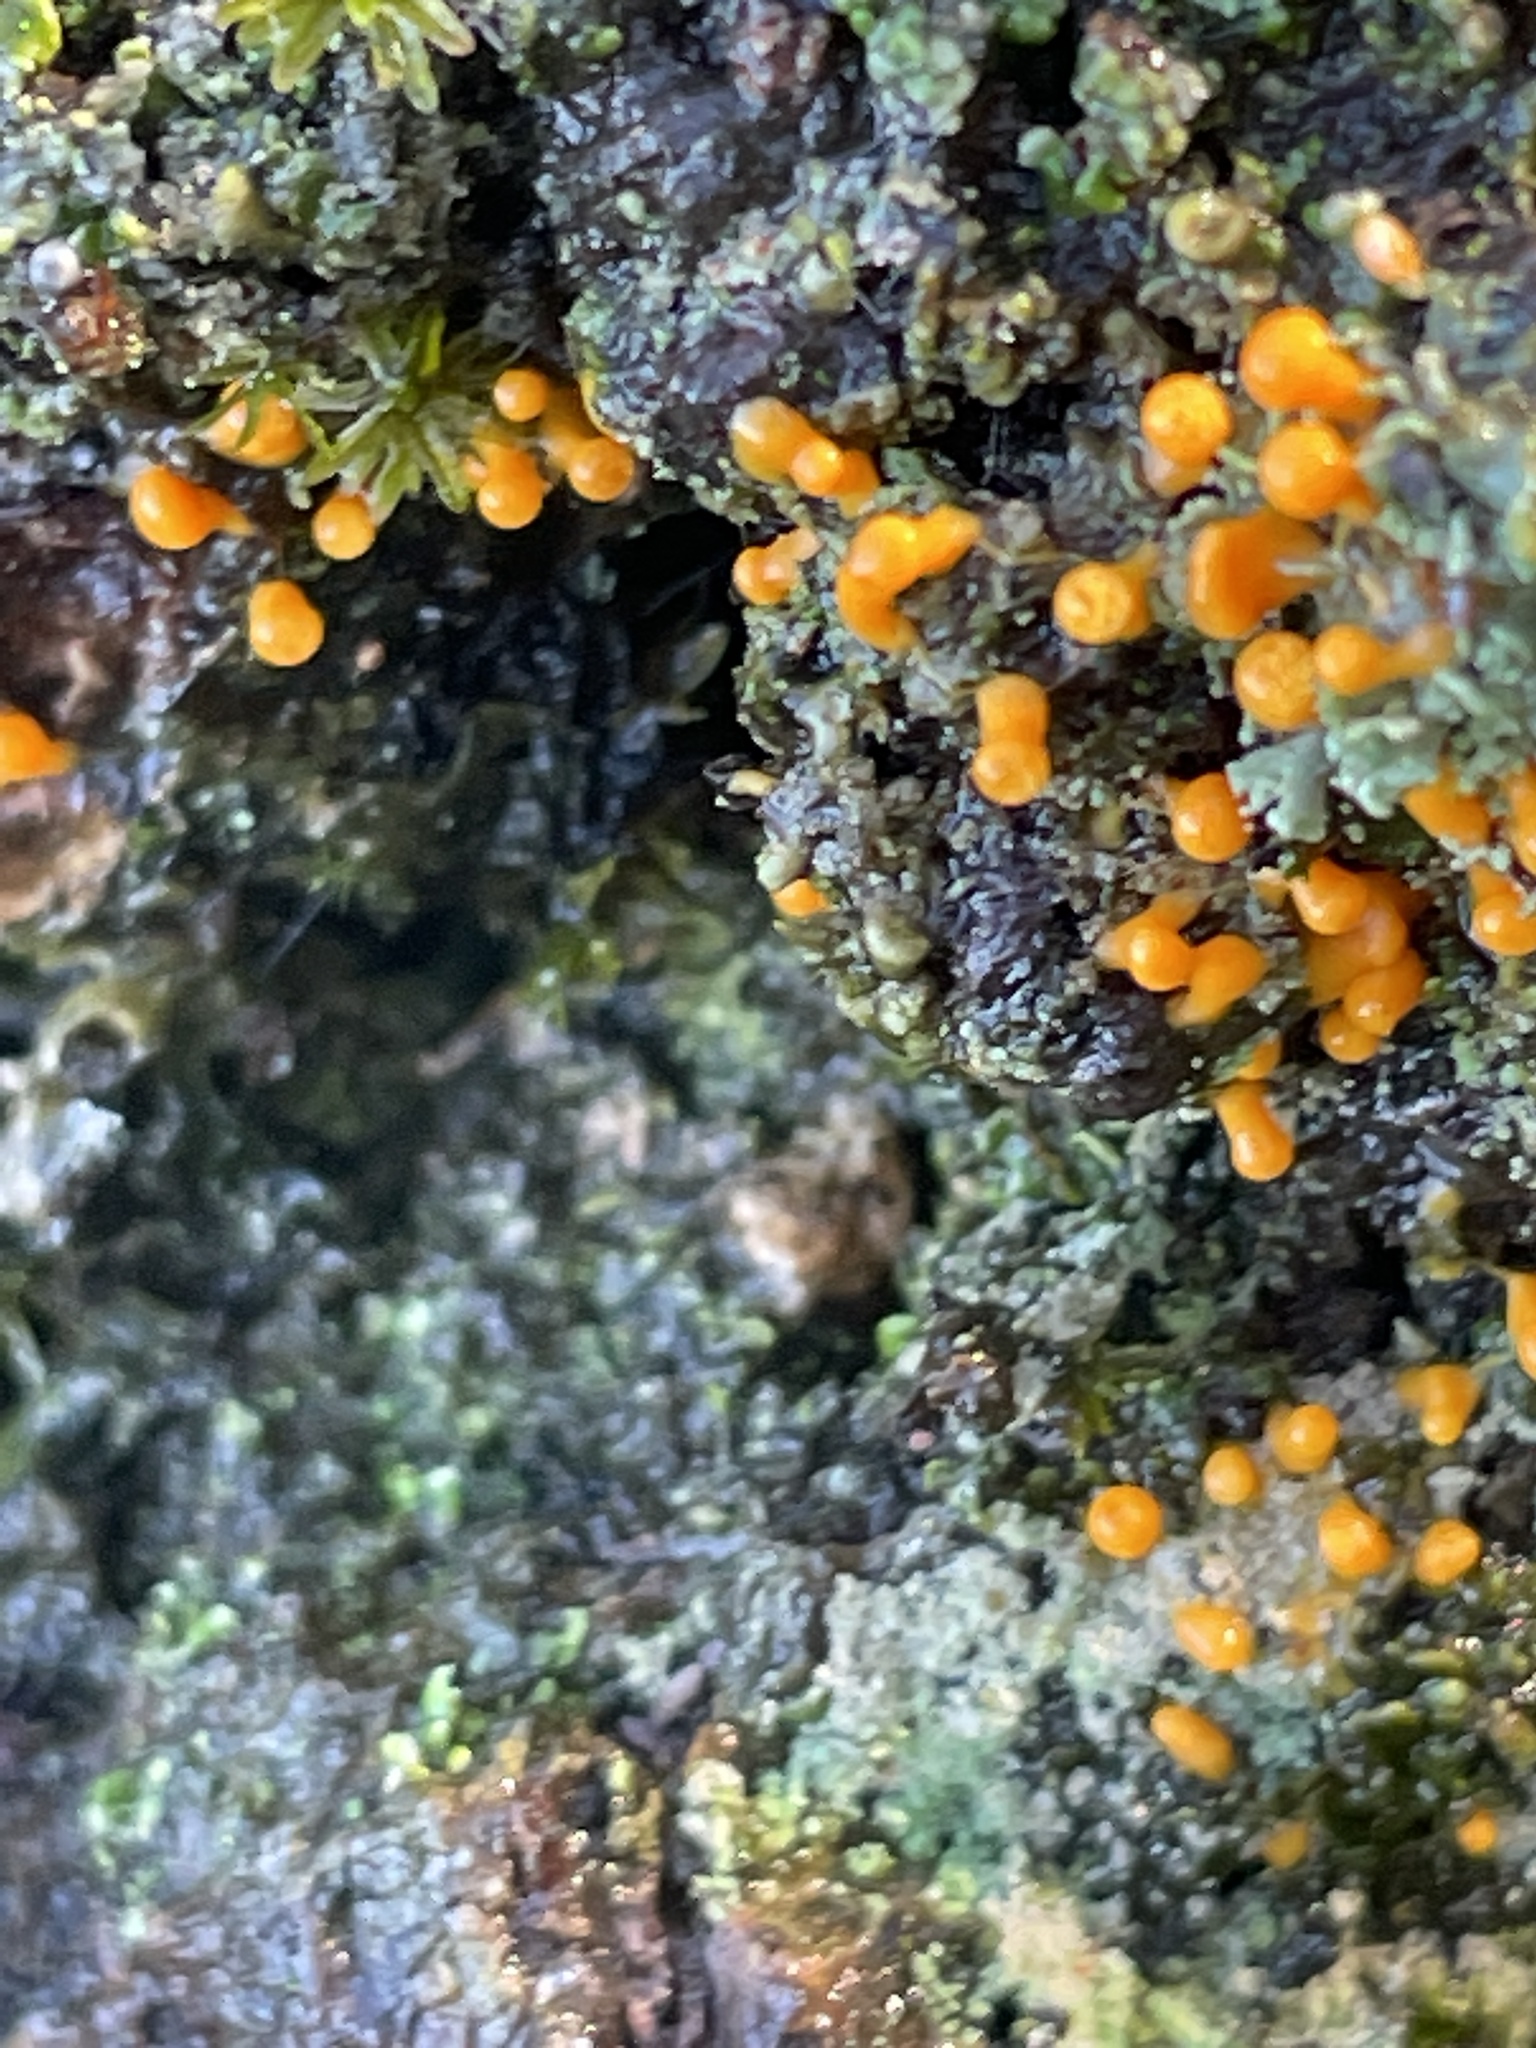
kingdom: Protozoa
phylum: Mycetozoa
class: Myxomycetes
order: Physarales
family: Physaraceae
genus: Leocarpus
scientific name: Leocarpus fragilis
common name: Insect-egg slime
